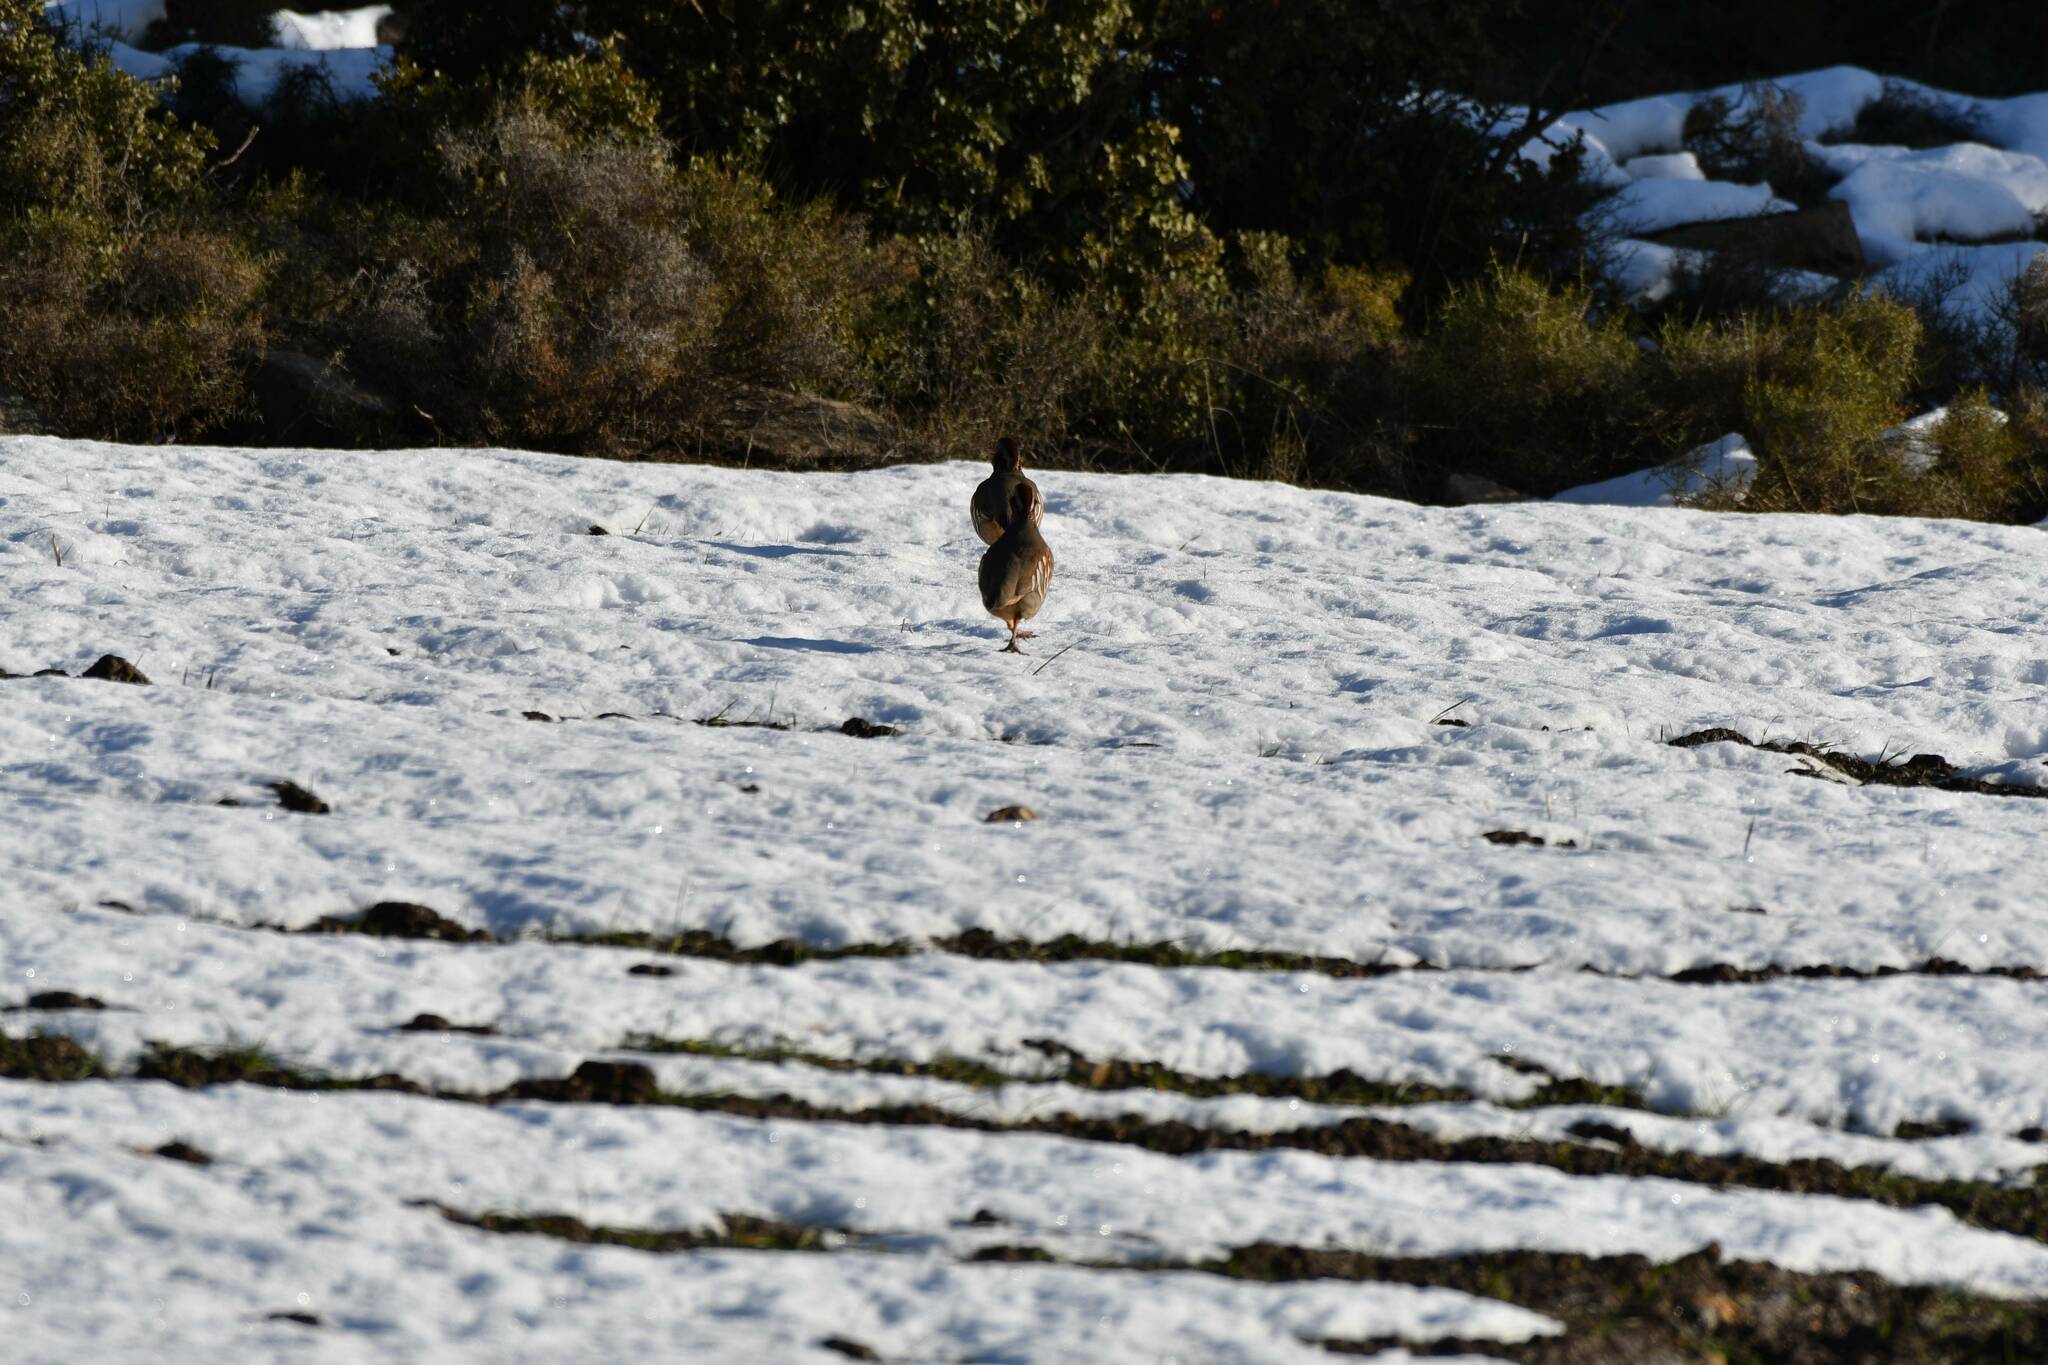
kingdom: Animalia
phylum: Chordata
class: Aves
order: Galliformes
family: Phasianidae
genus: Alectoris
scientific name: Alectoris barbara
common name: Barbary partridge
